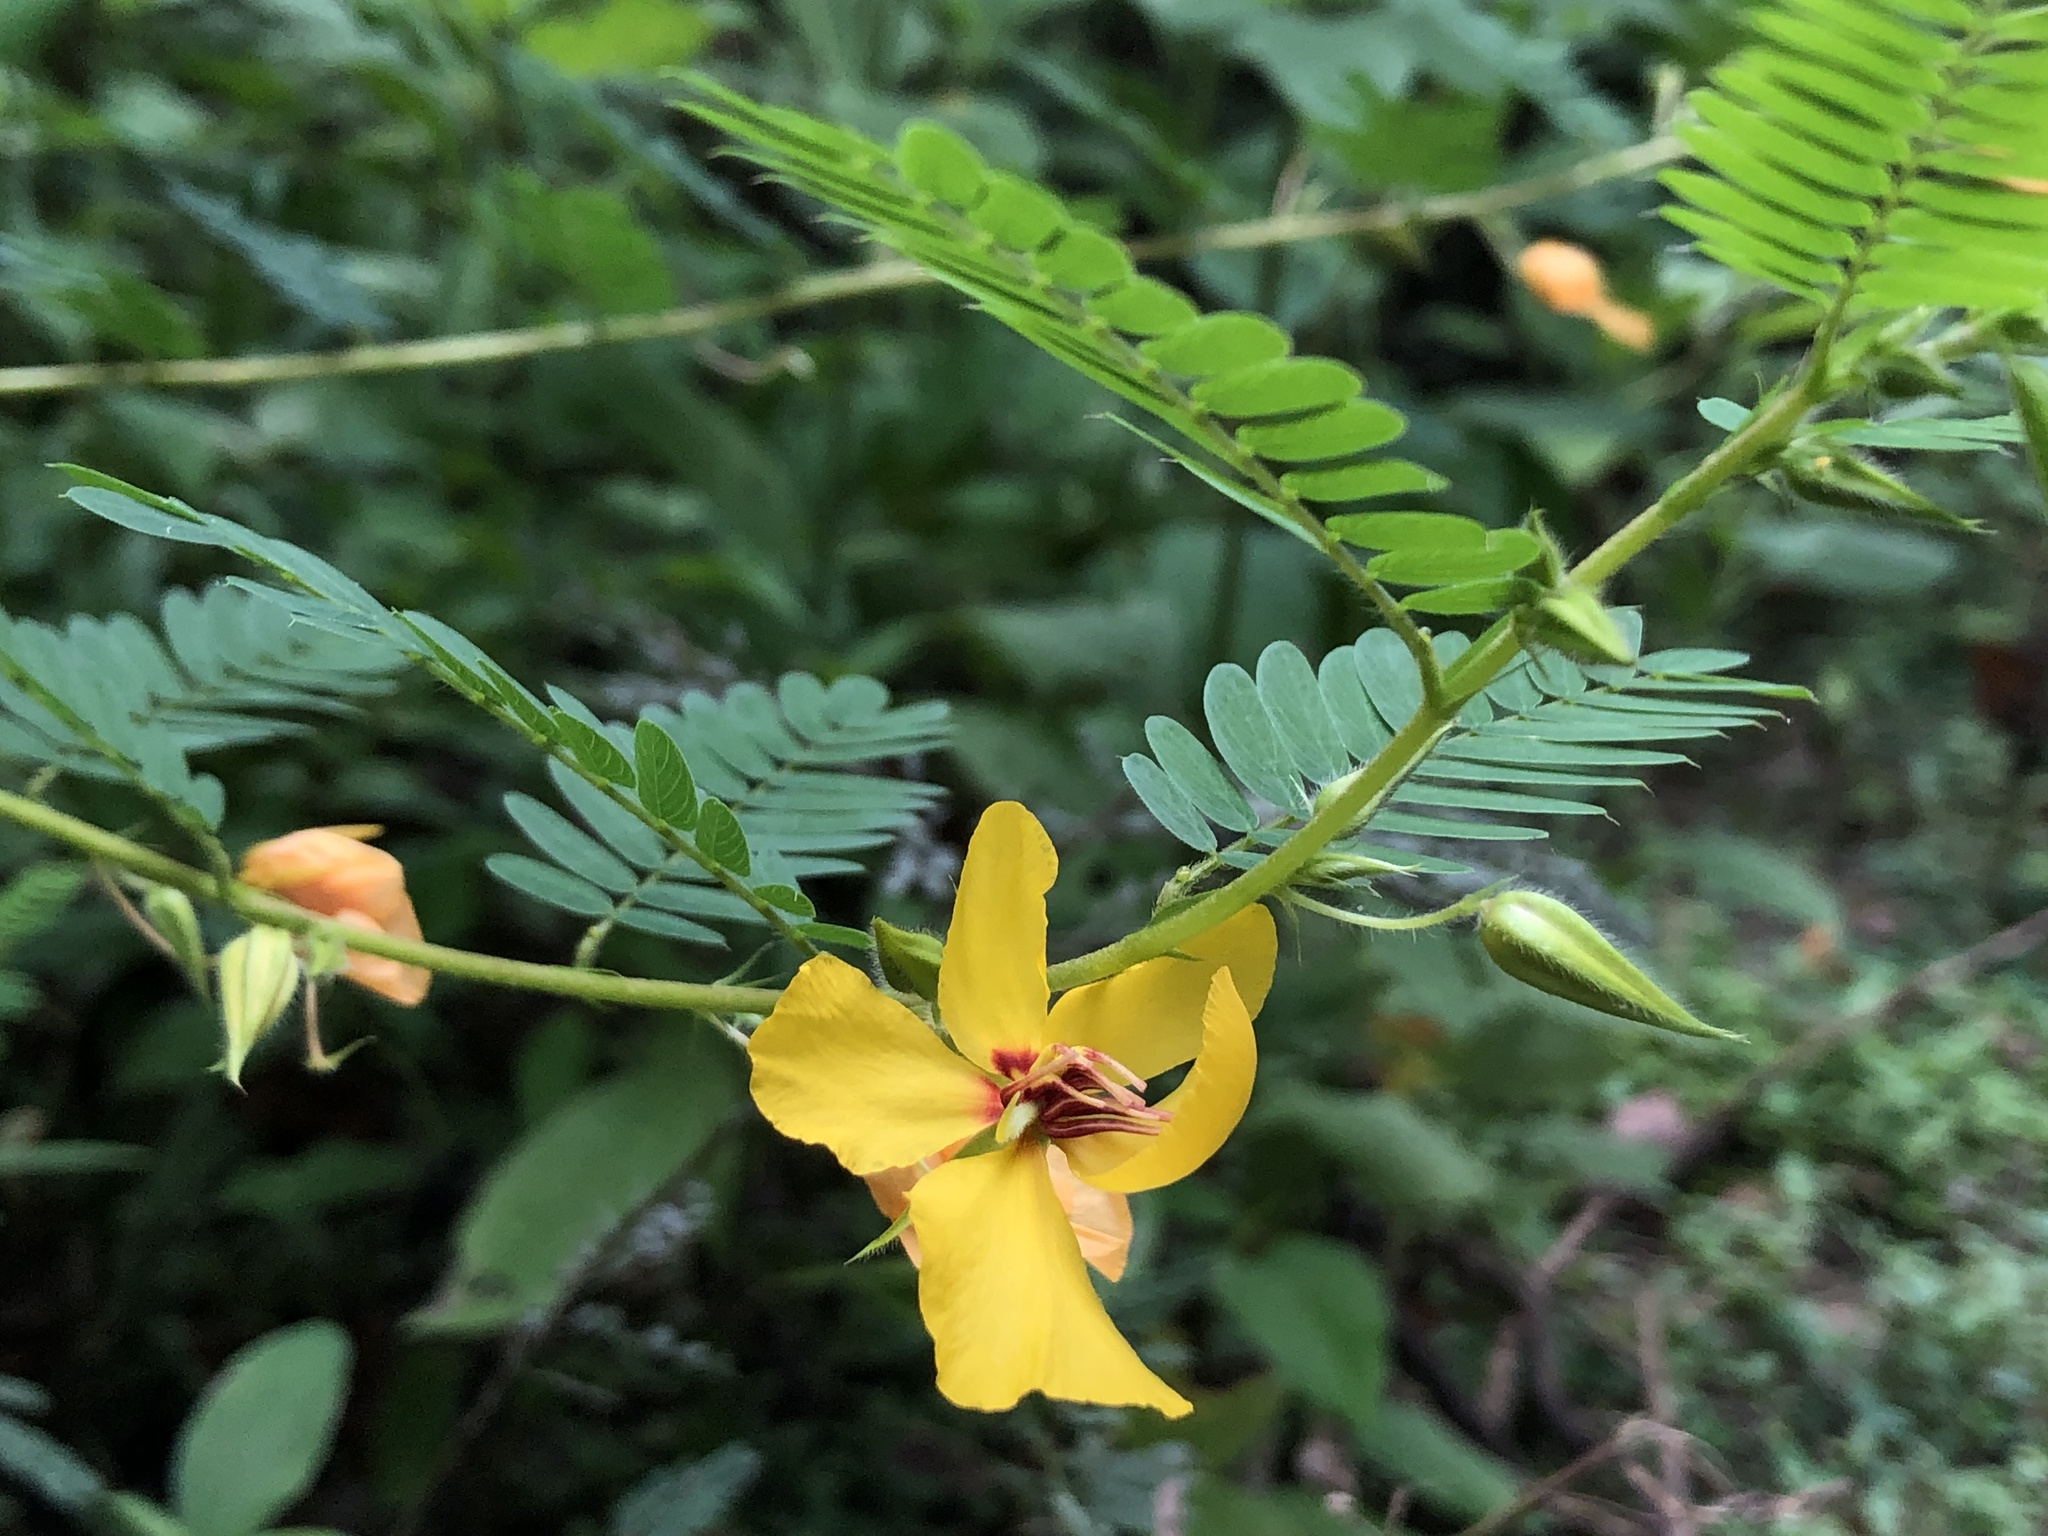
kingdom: Plantae
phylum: Tracheophyta
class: Magnoliopsida
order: Fabales
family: Fabaceae
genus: Chamaecrista
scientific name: Chamaecrista fasciculata
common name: Golden cassia
